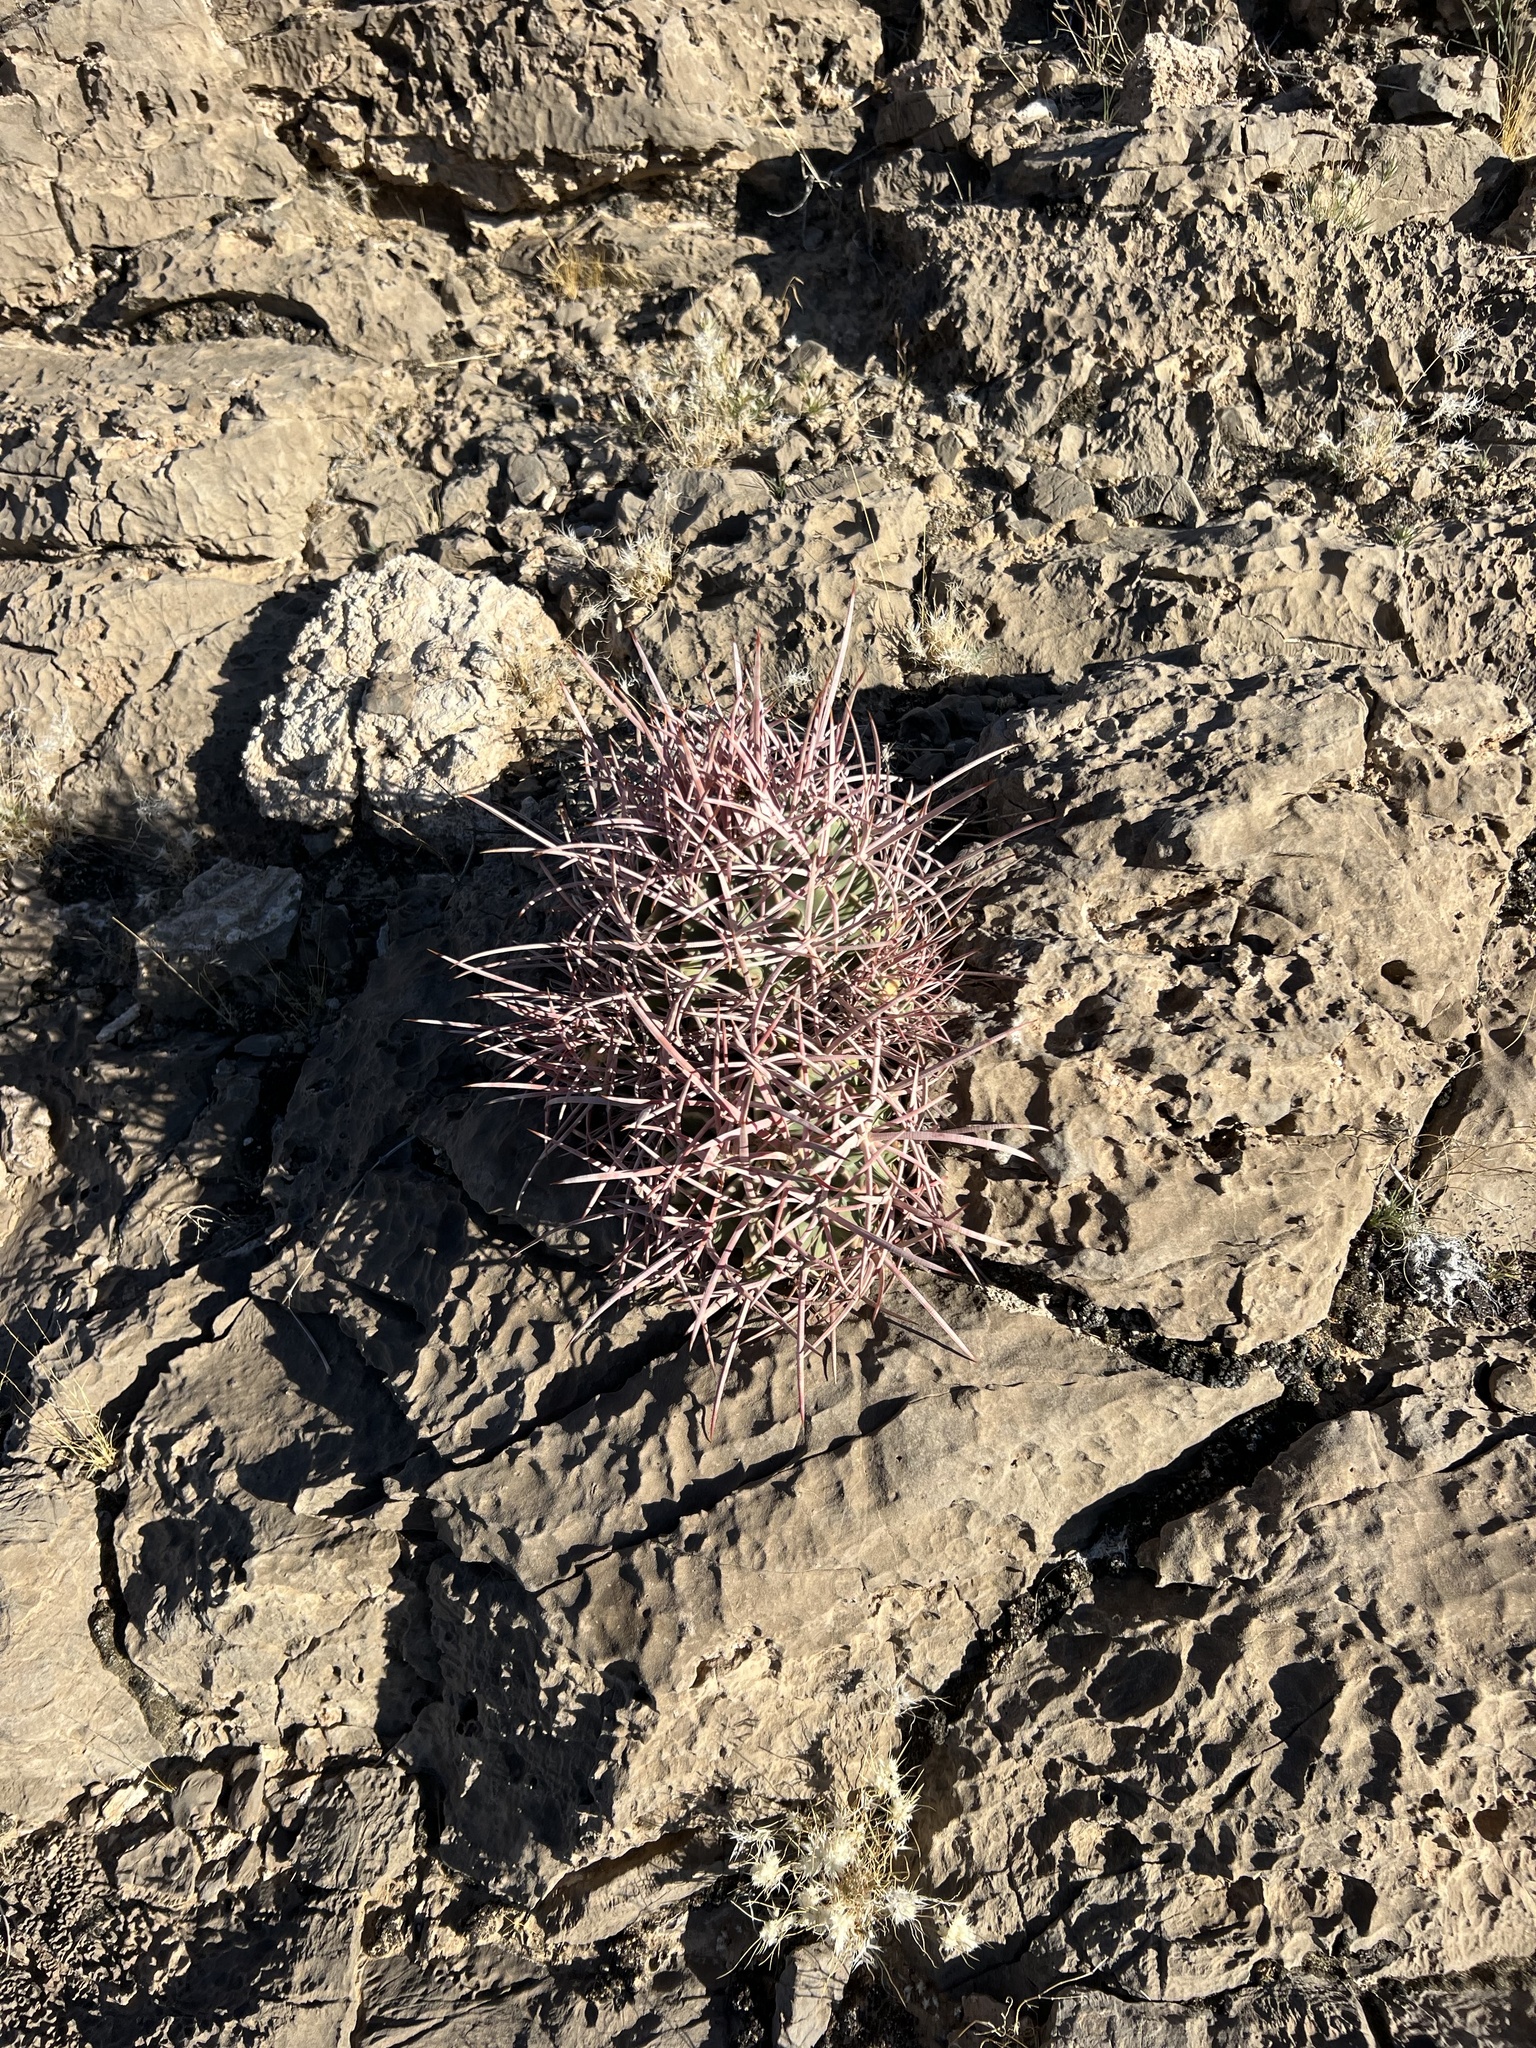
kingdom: Plantae
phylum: Tracheophyta
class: Magnoliopsida
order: Caryophyllales
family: Cactaceae
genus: Echinocactus
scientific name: Echinocactus polycephalus
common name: Cottontop cactus
